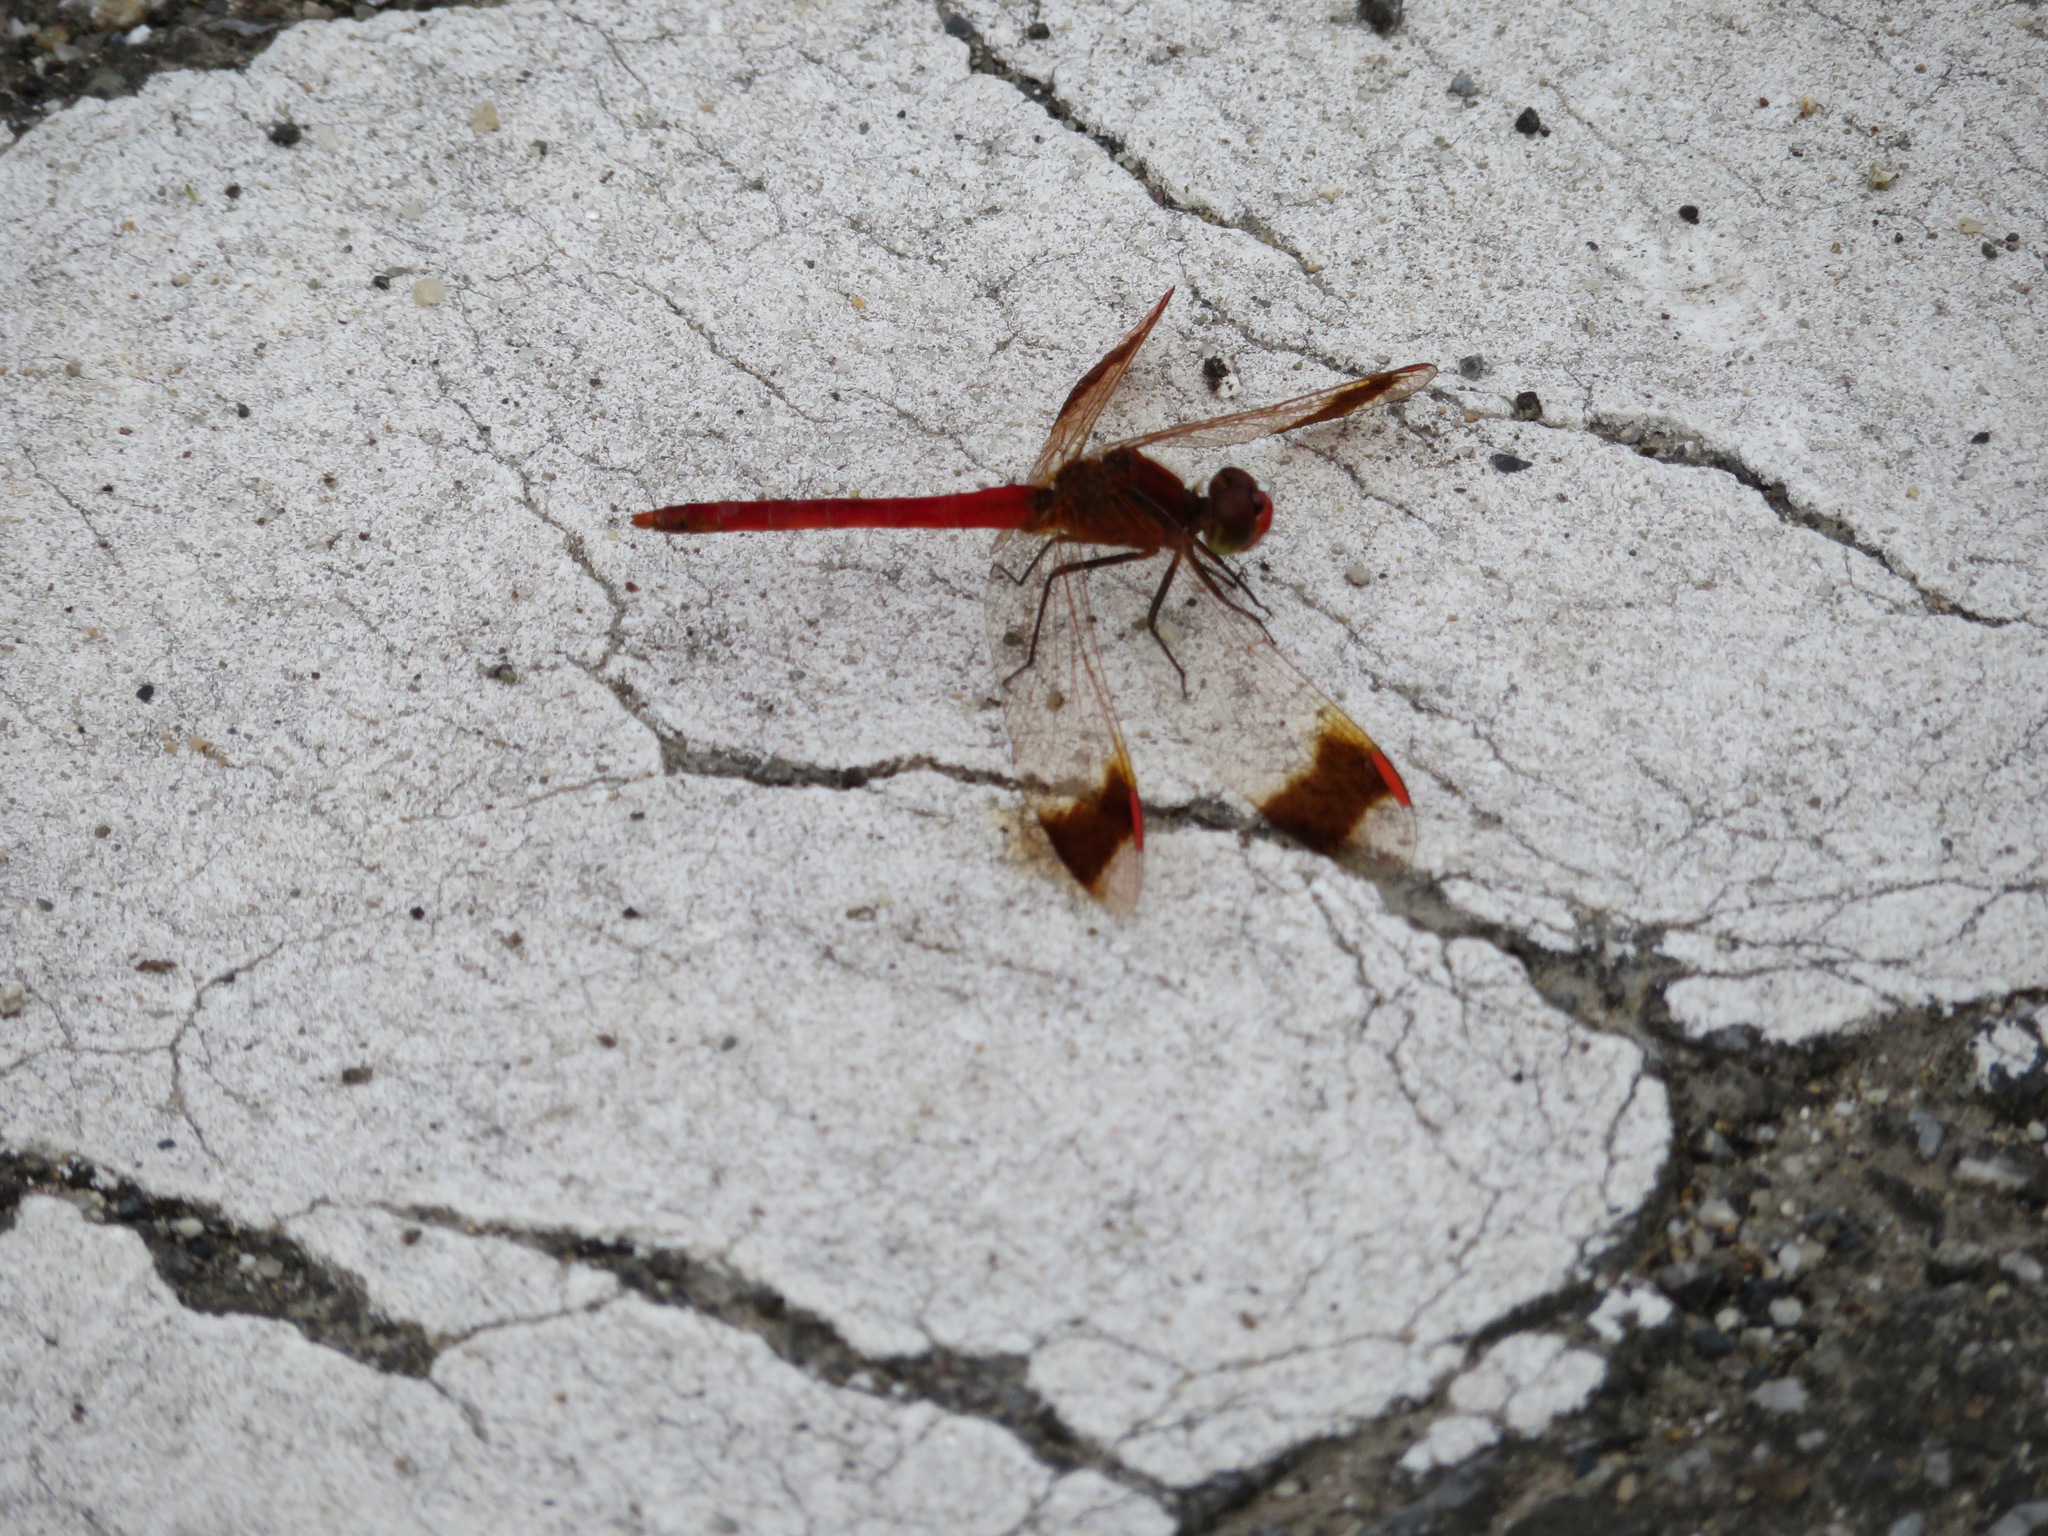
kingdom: Animalia
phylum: Arthropoda
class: Insecta
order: Odonata
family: Libellulidae
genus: Sympetrum
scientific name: Sympetrum pedemontanum
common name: Banded darter
